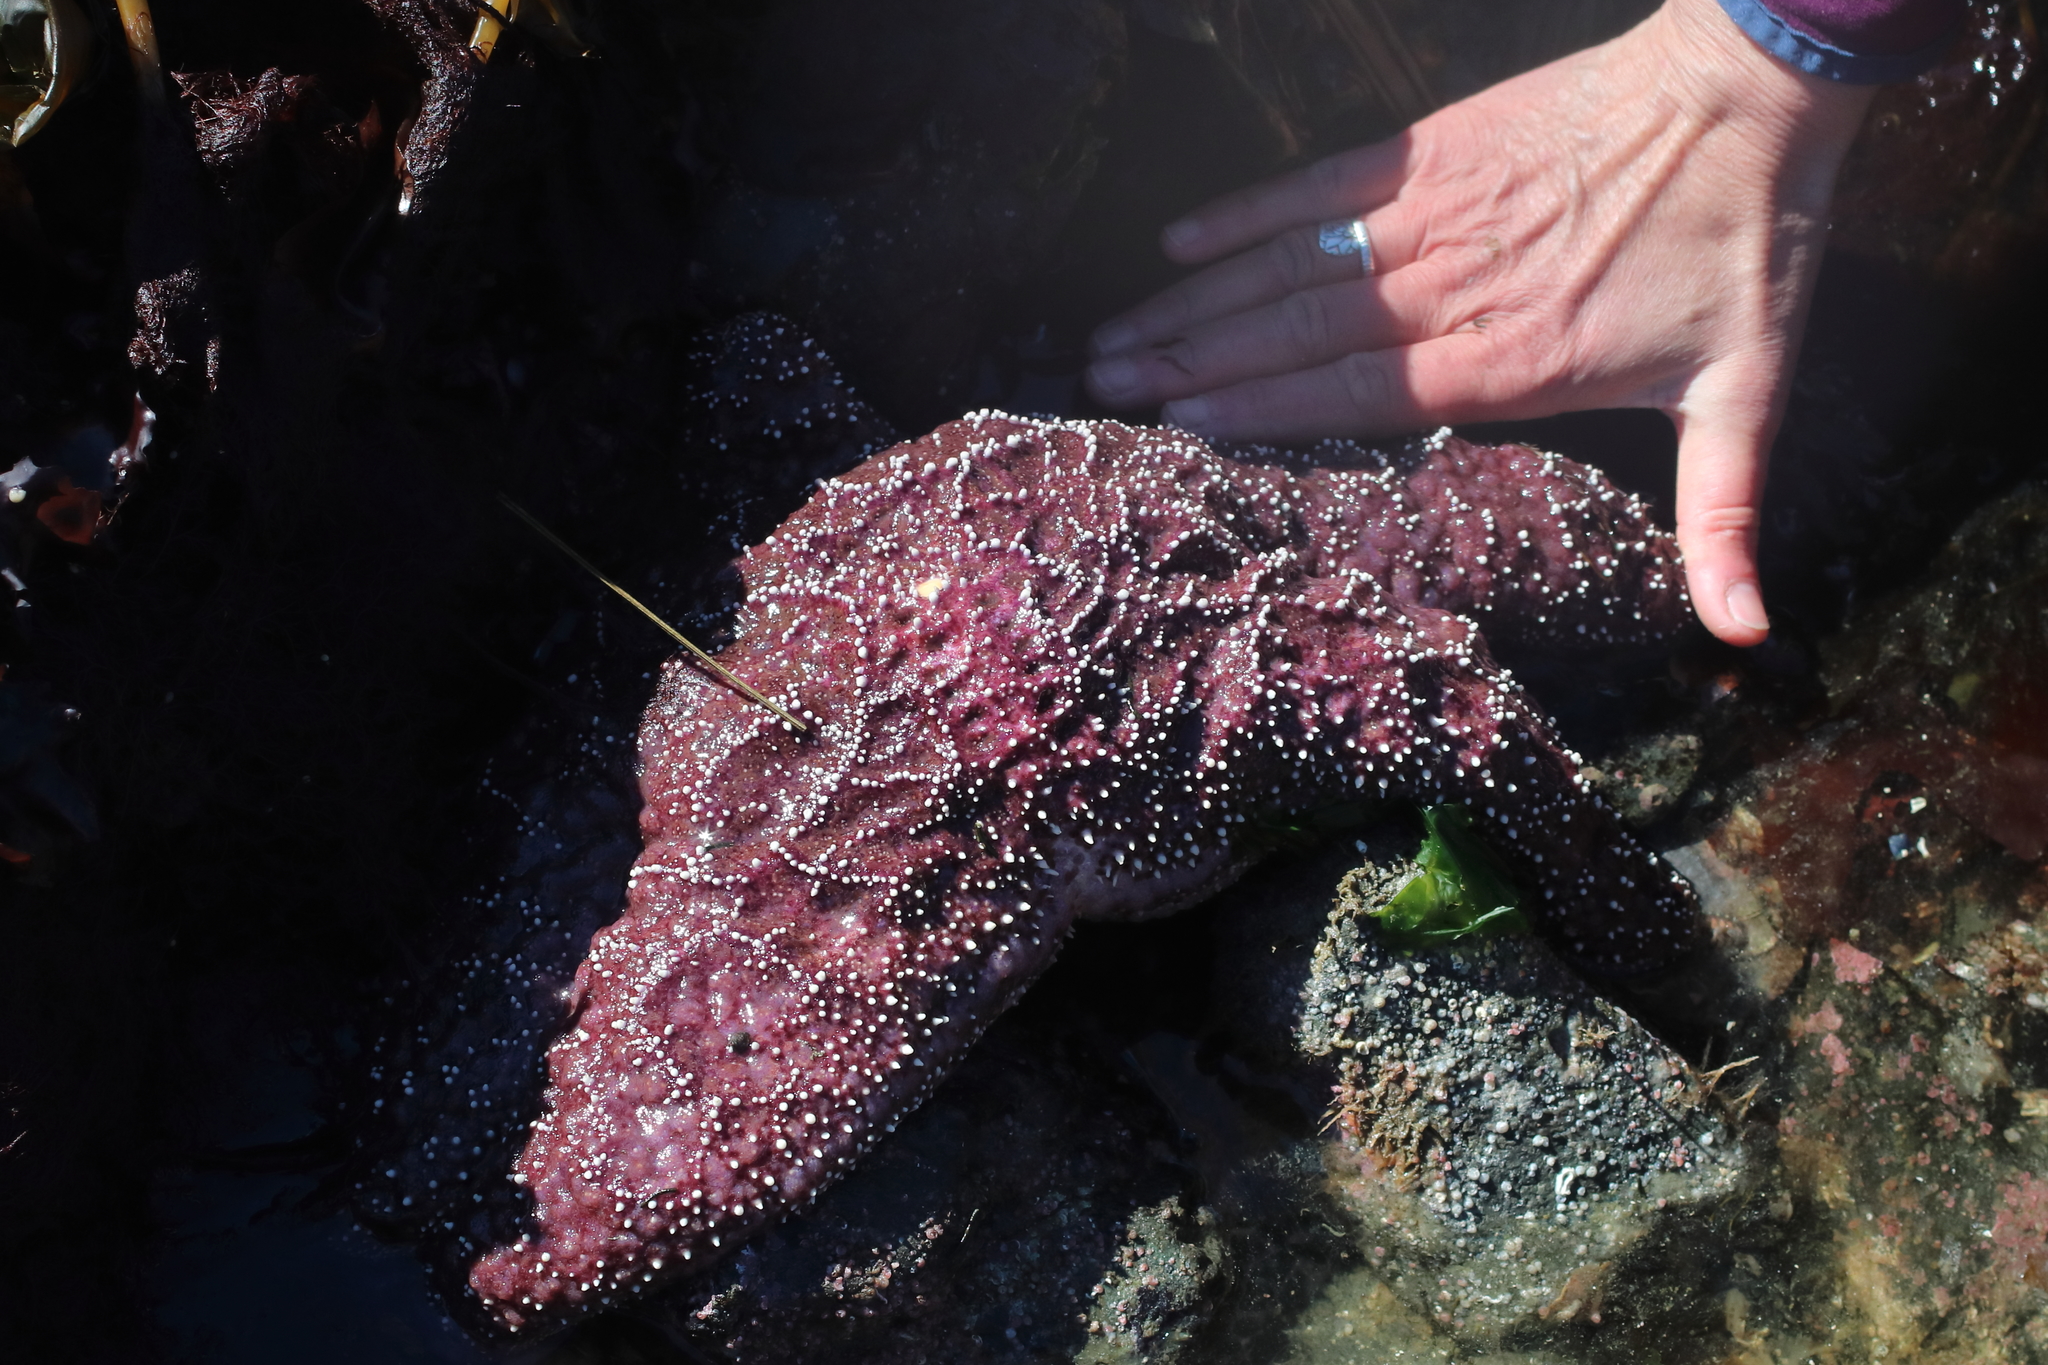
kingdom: Animalia
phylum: Echinodermata
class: Asteroidea
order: Forcipulatida
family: Asteriidae
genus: Pisaster
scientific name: Pisaster ochraceus
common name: Ochre stars
